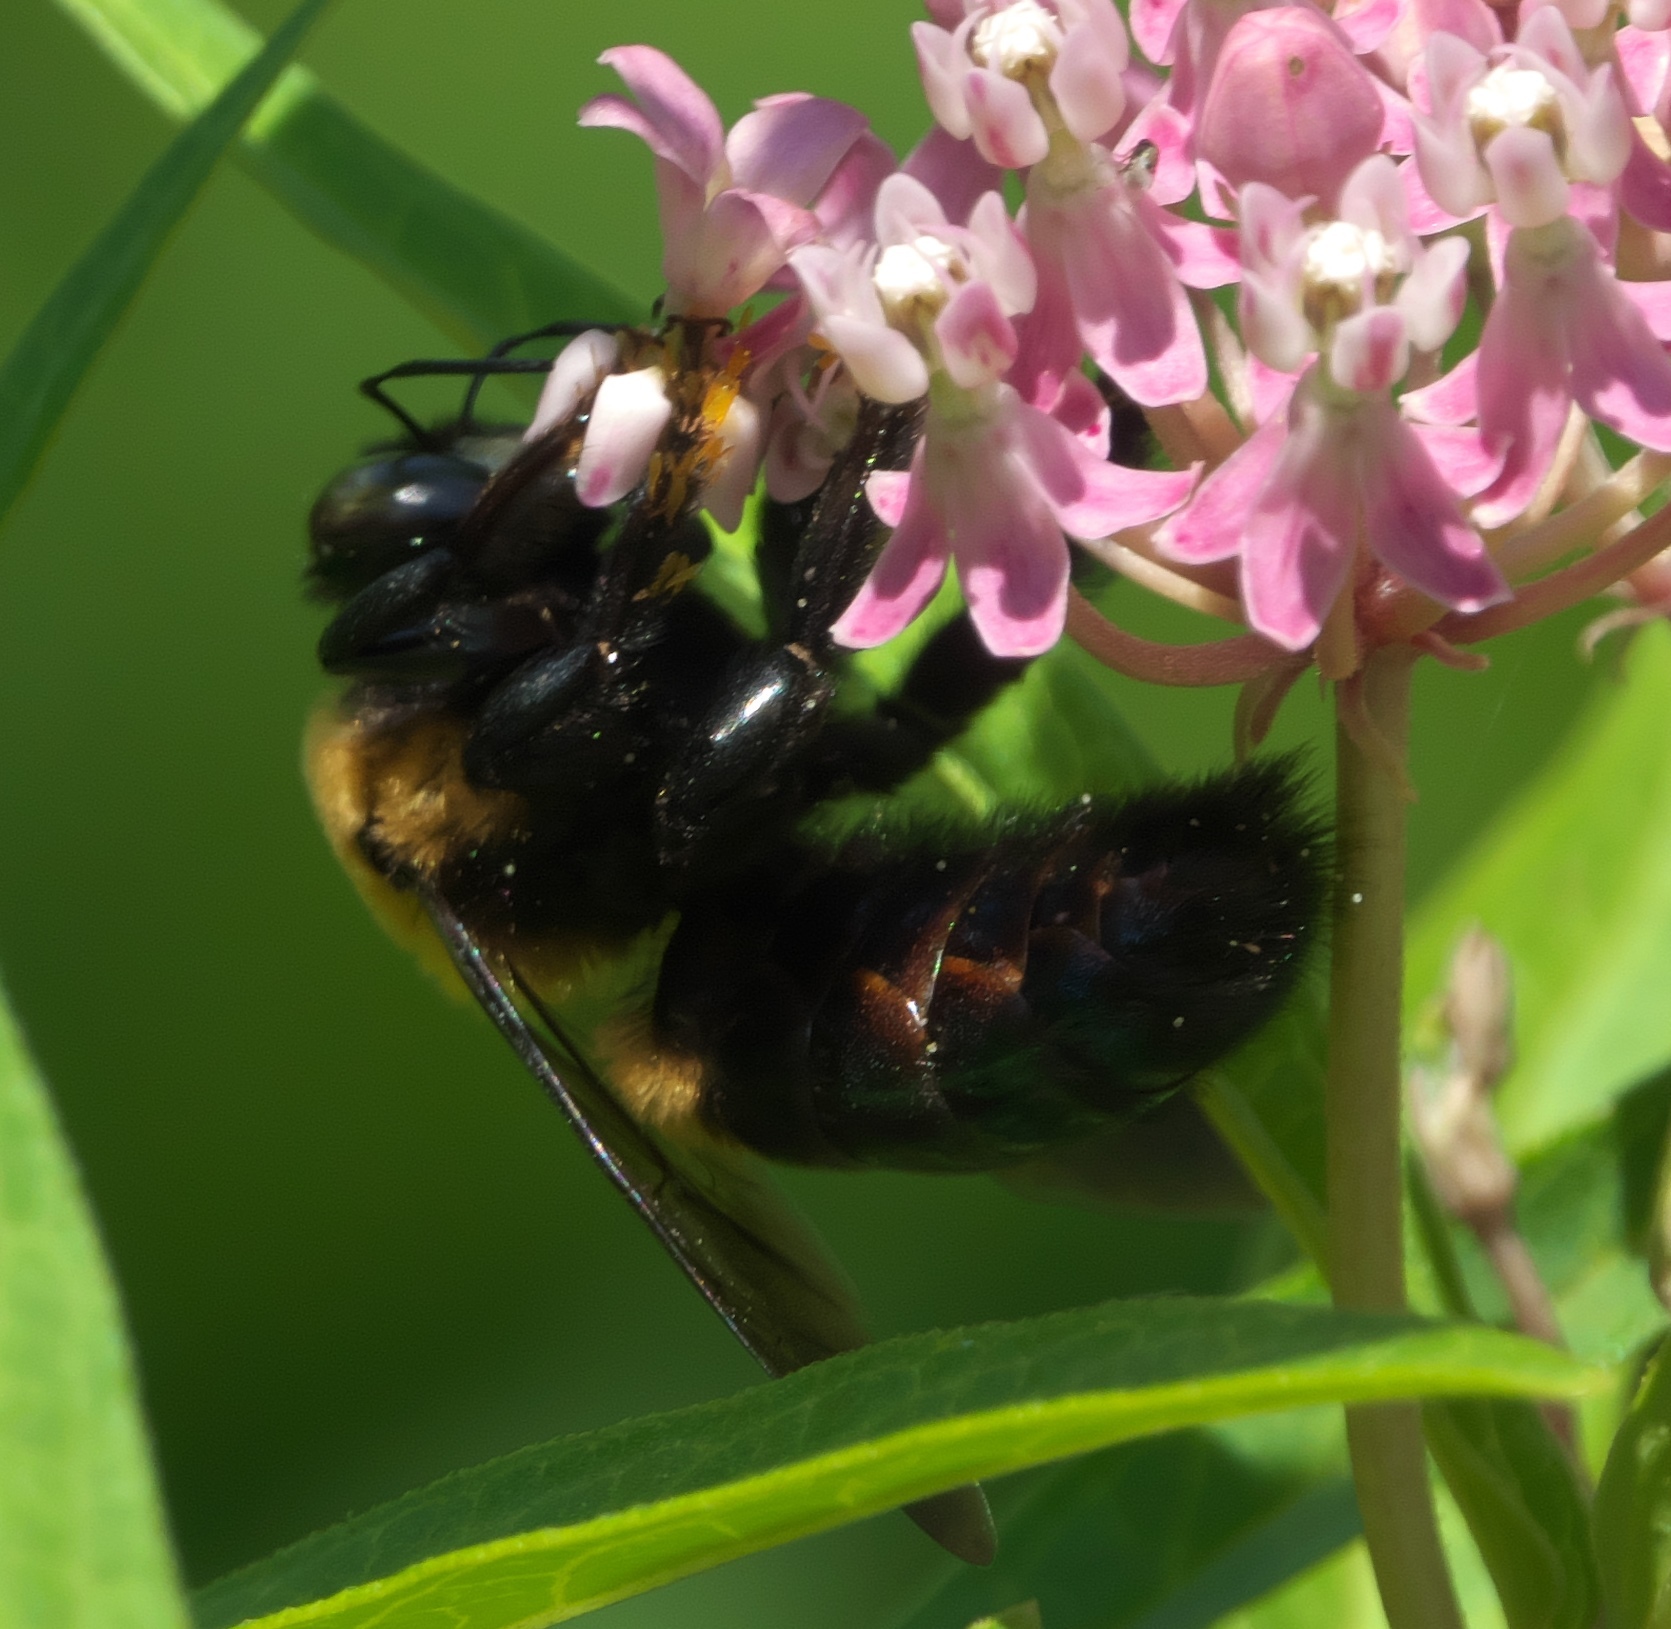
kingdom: Animalia
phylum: Arthropoda
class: Insecta
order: Hymenoptera
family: Apidae
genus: Xylocopa
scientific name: Xylocopa virginica
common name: Carpenter bee
